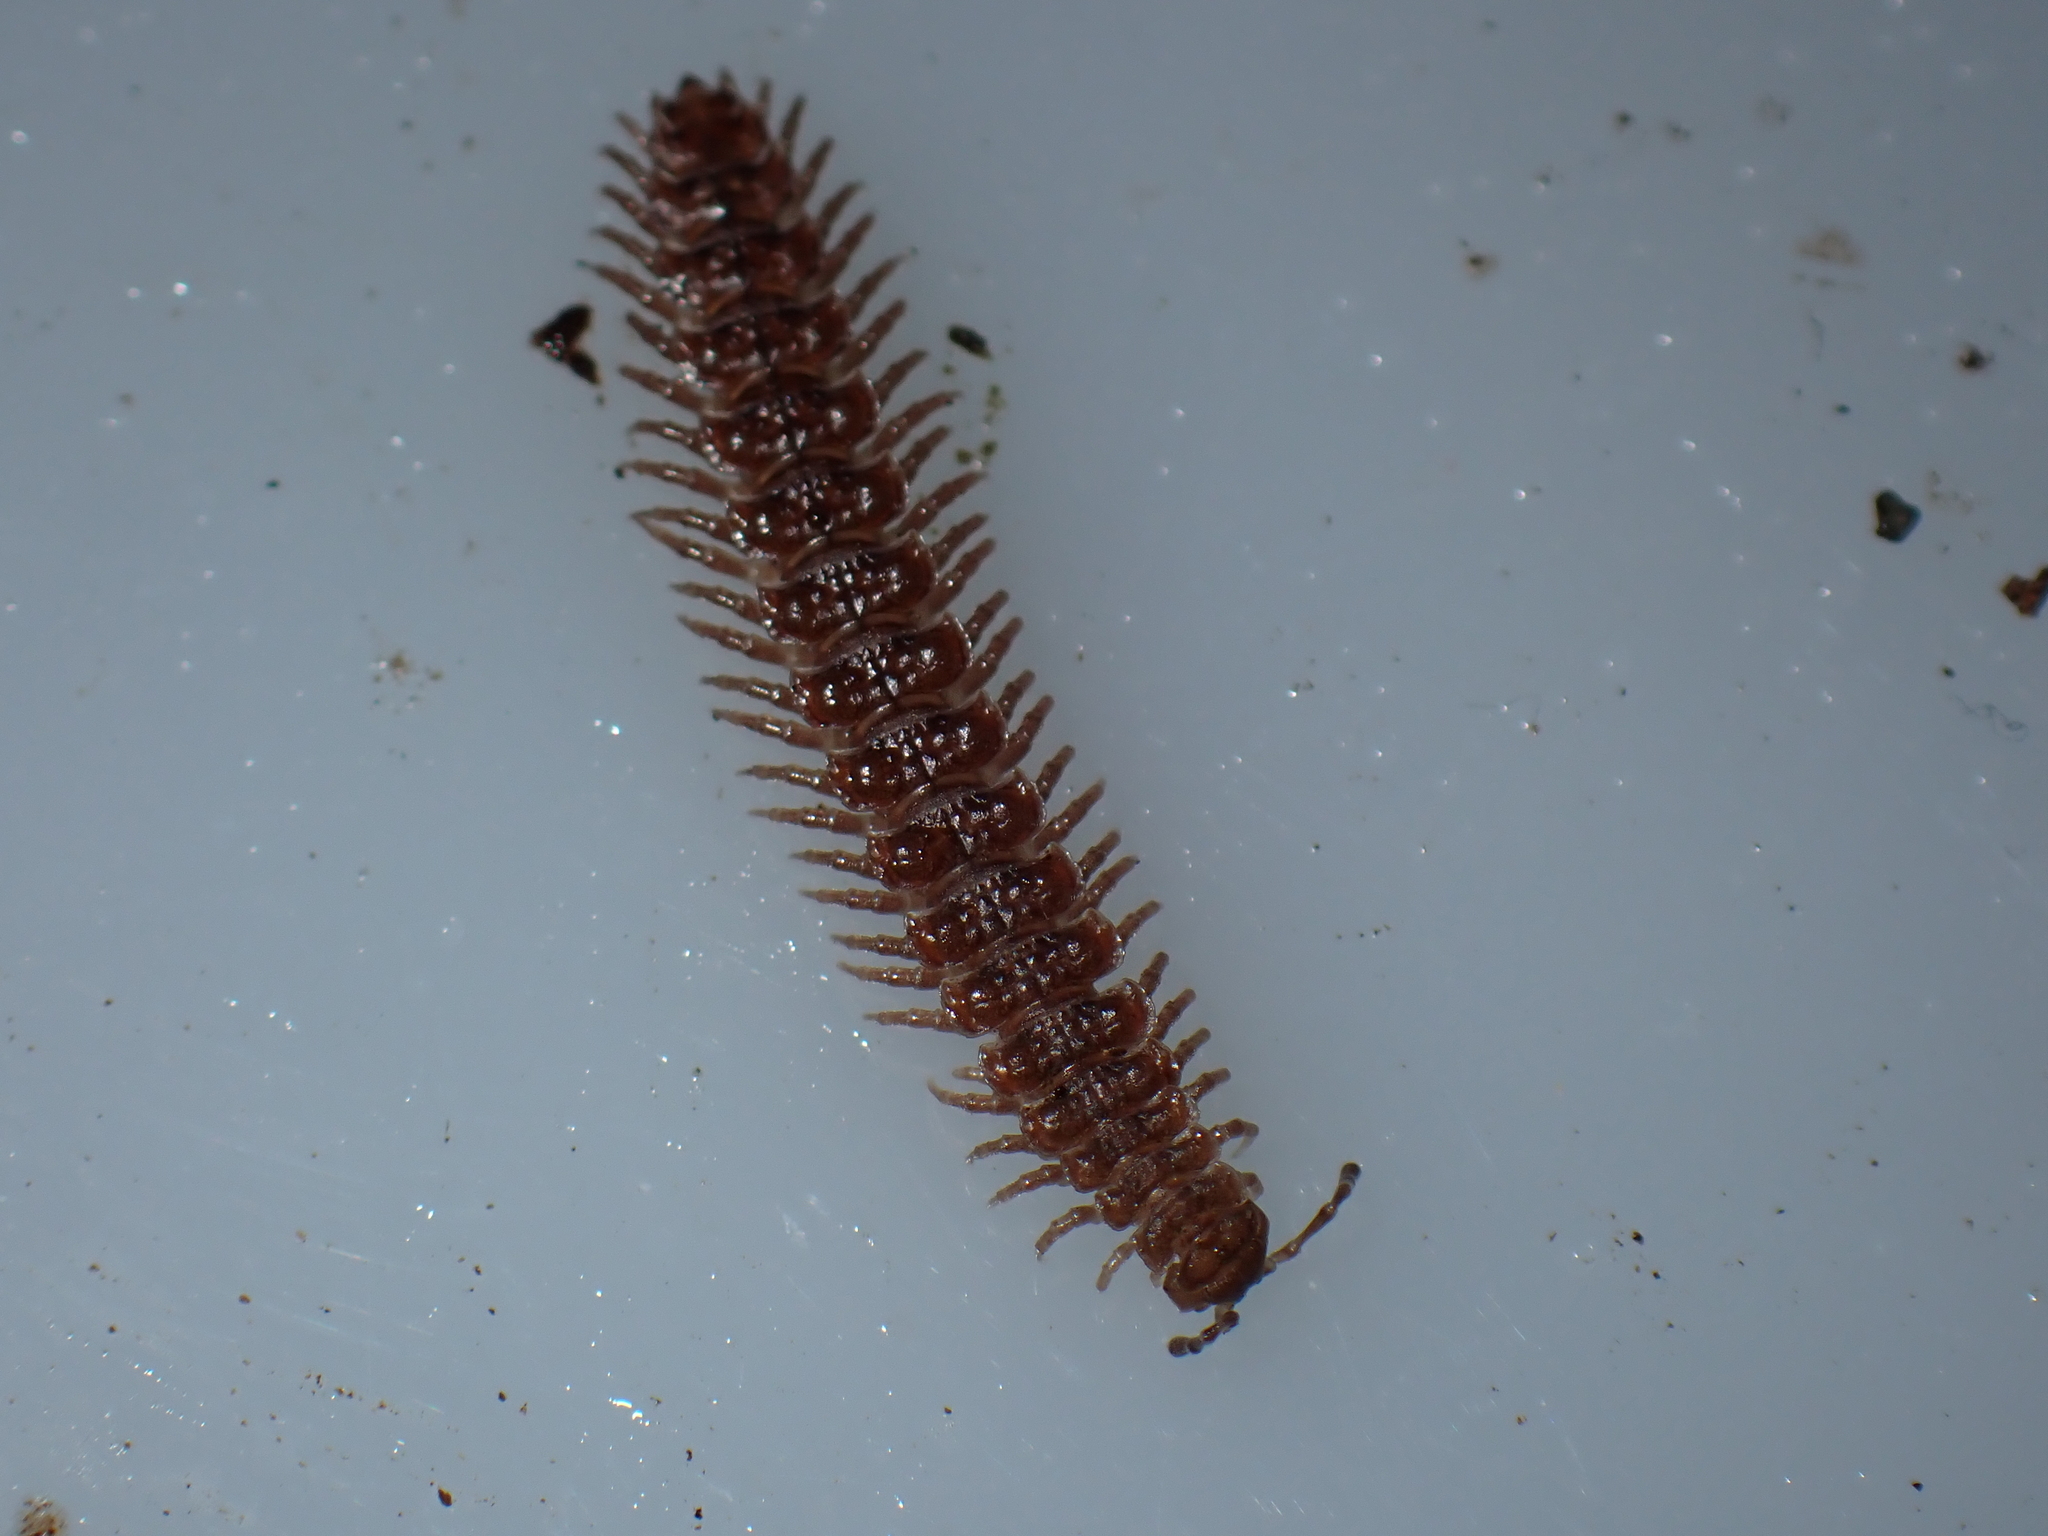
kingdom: Animalia
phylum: Arthropoda
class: Diplopoda
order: Polydesmida
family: Polydesmidae
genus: Polydesmus
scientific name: Polydesmus
